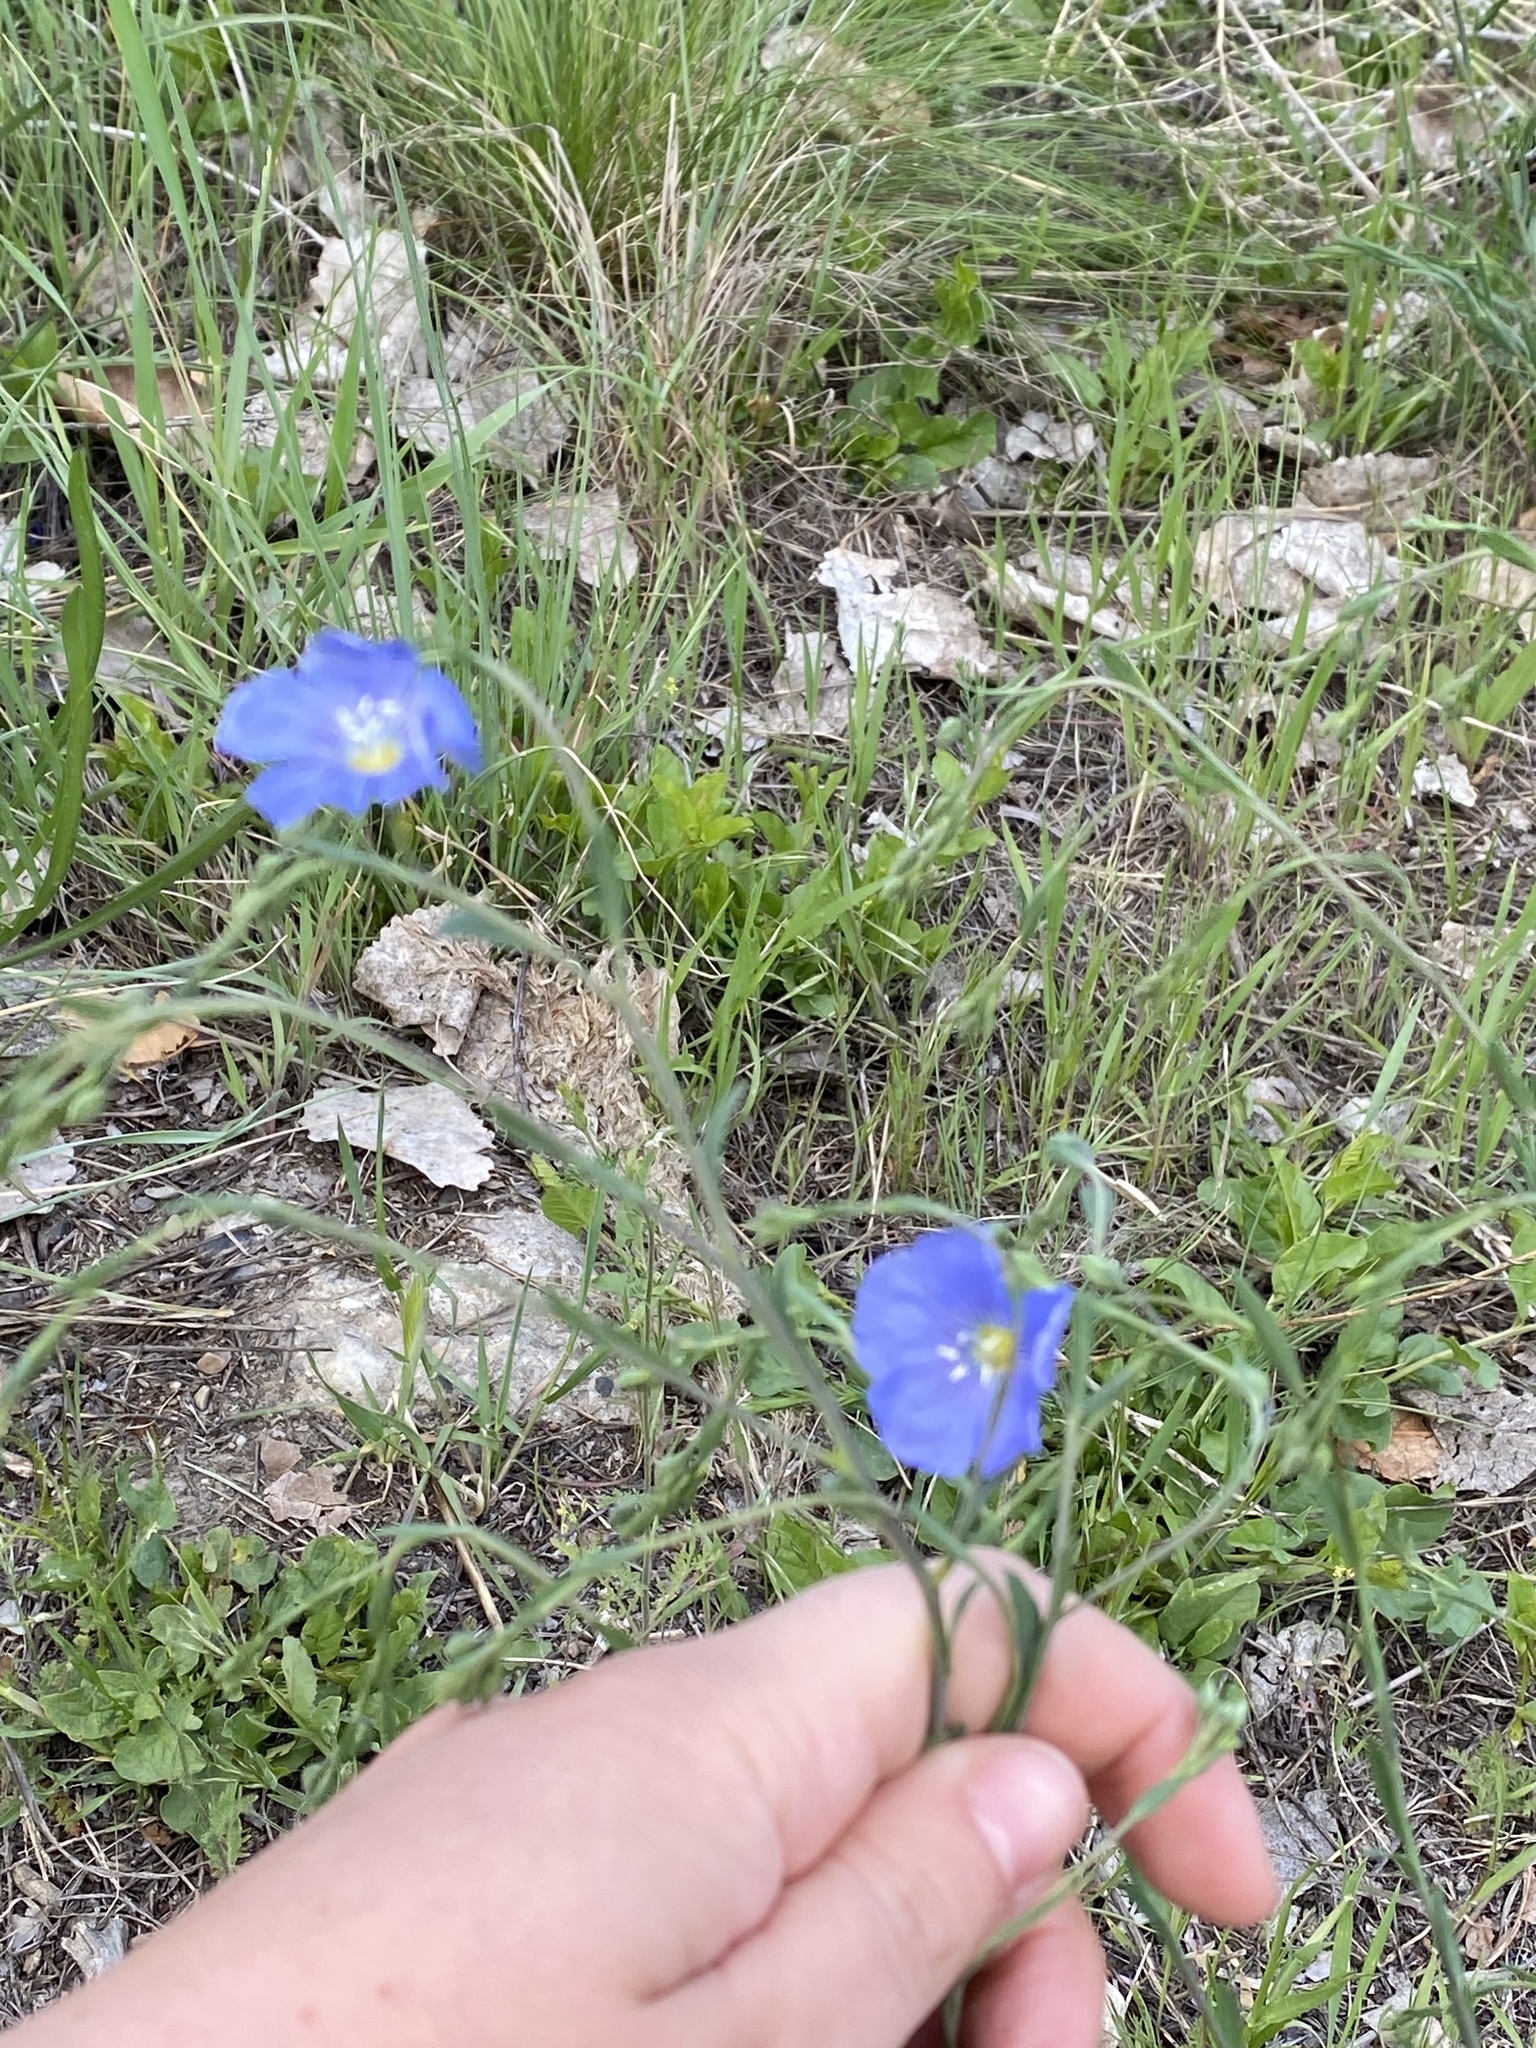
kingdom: Plantae
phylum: Tracheophyta
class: Magnoliopsida
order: Malpighiales
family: Linaceae
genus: Linum
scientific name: Linum lewisii
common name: Prairie flax
